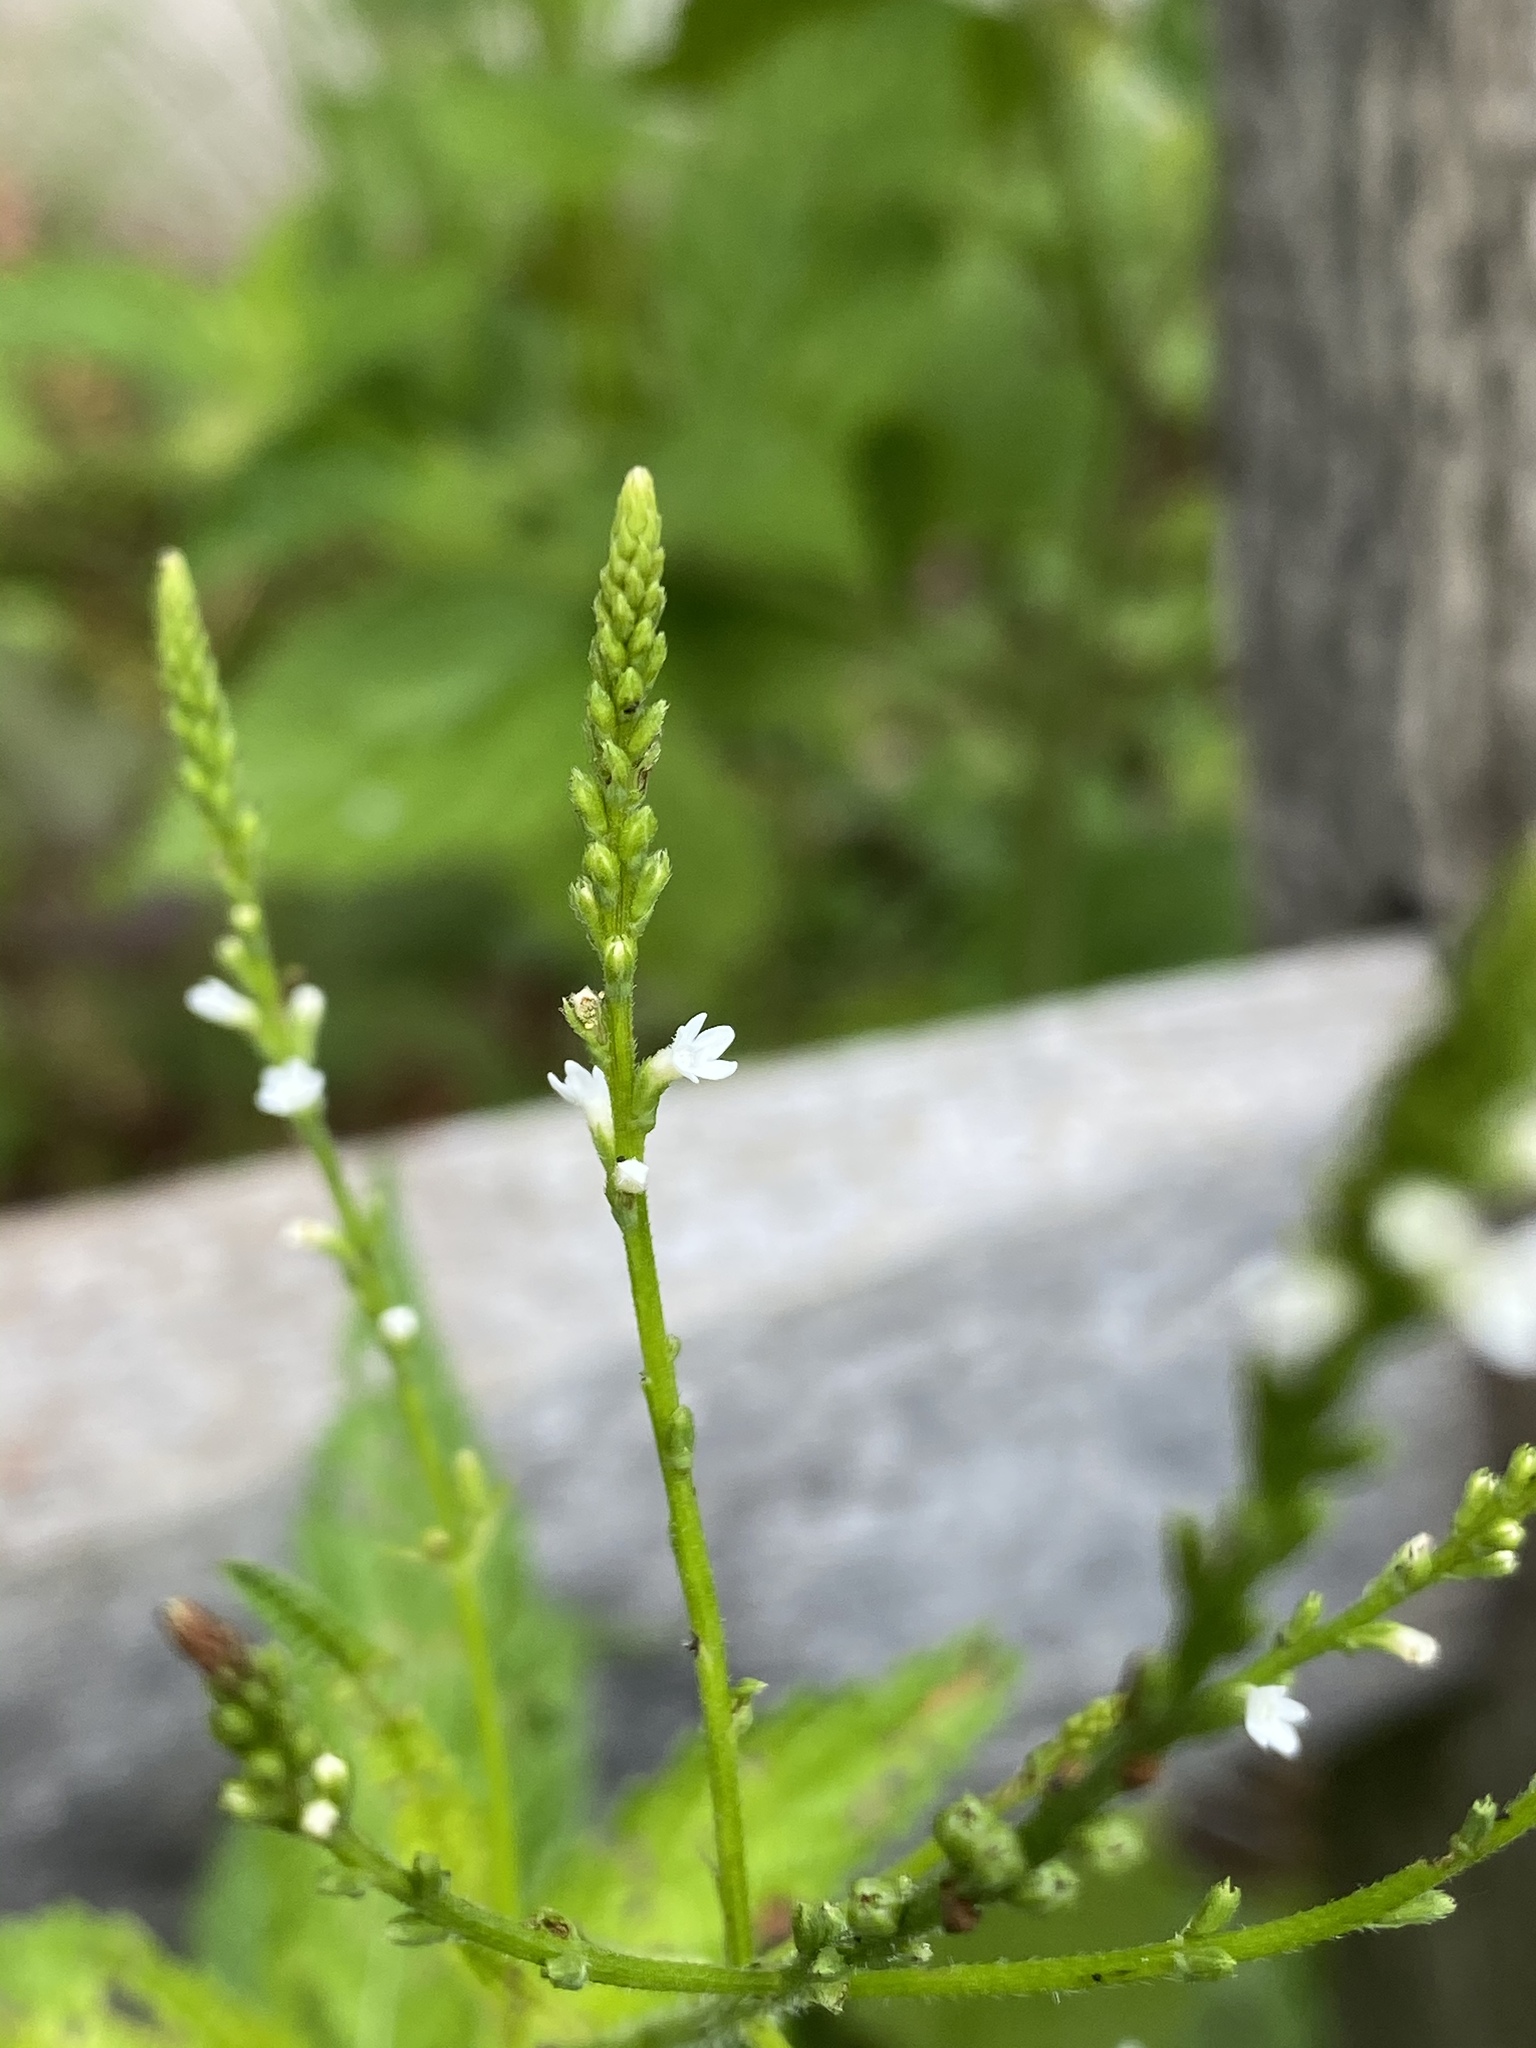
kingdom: Plantae
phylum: Tracheophyta
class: Magnoliopsida
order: Lamiales
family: Verbenaceae
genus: Verbena
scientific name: Verbena urticifolia
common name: Nettle-leaved vervain
